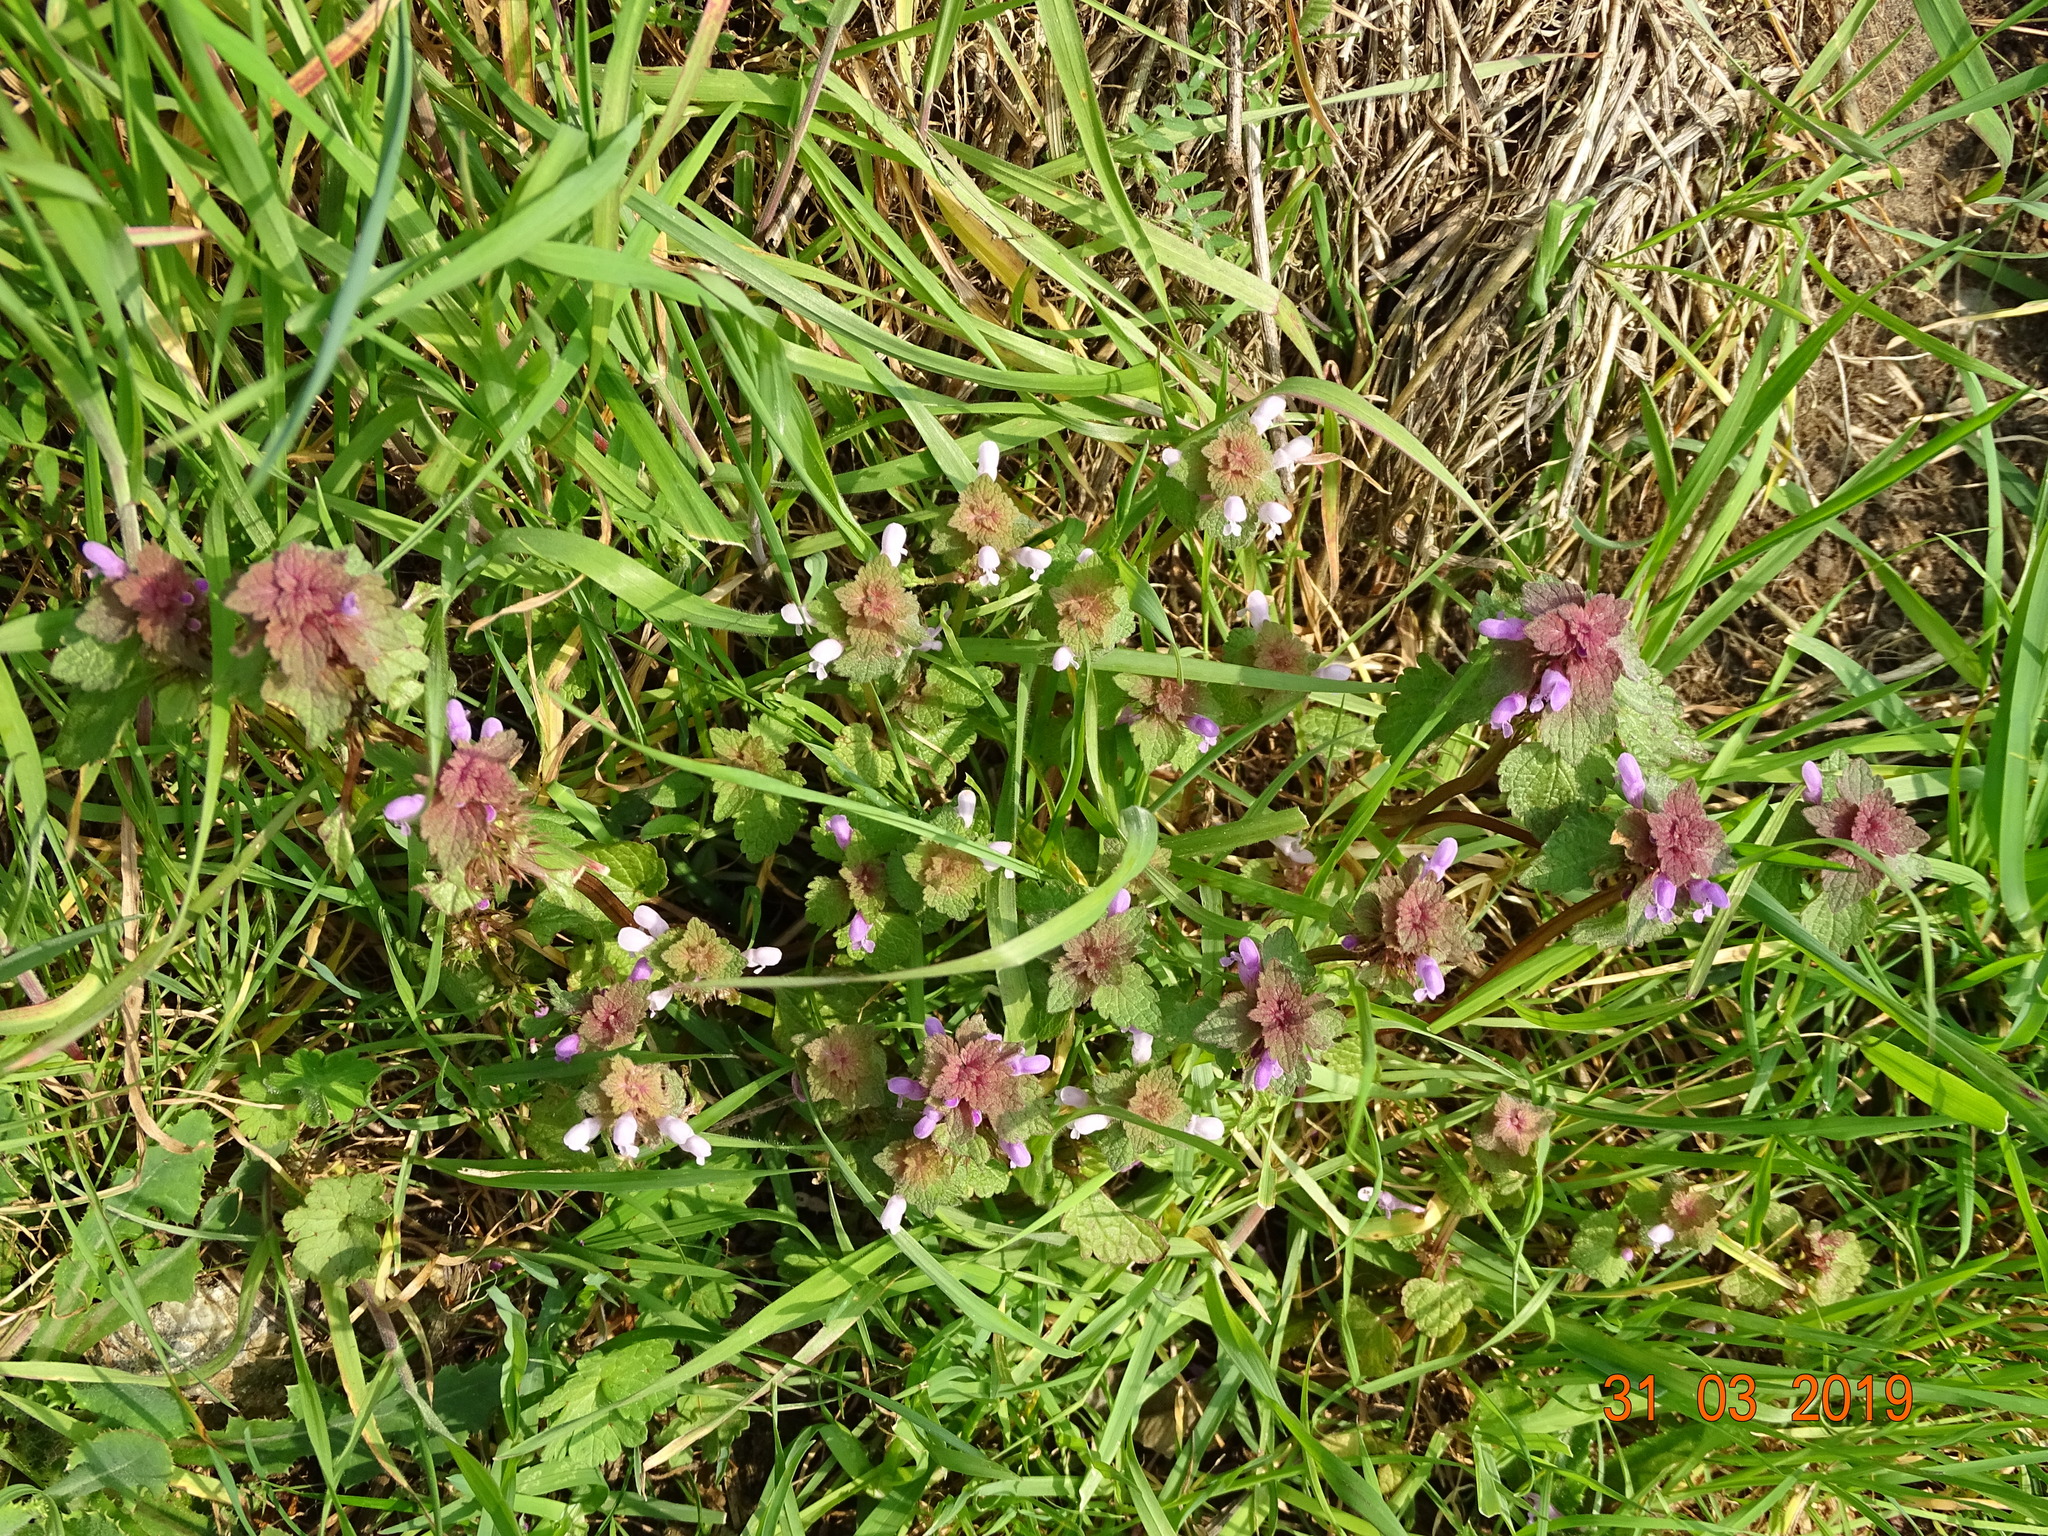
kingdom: Plantae
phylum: Tracheophyta
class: Magnoliopsida
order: Lamiales
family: Lamiaceae
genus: Lamium
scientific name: Lamium purpureum
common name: Red dead-nettle
